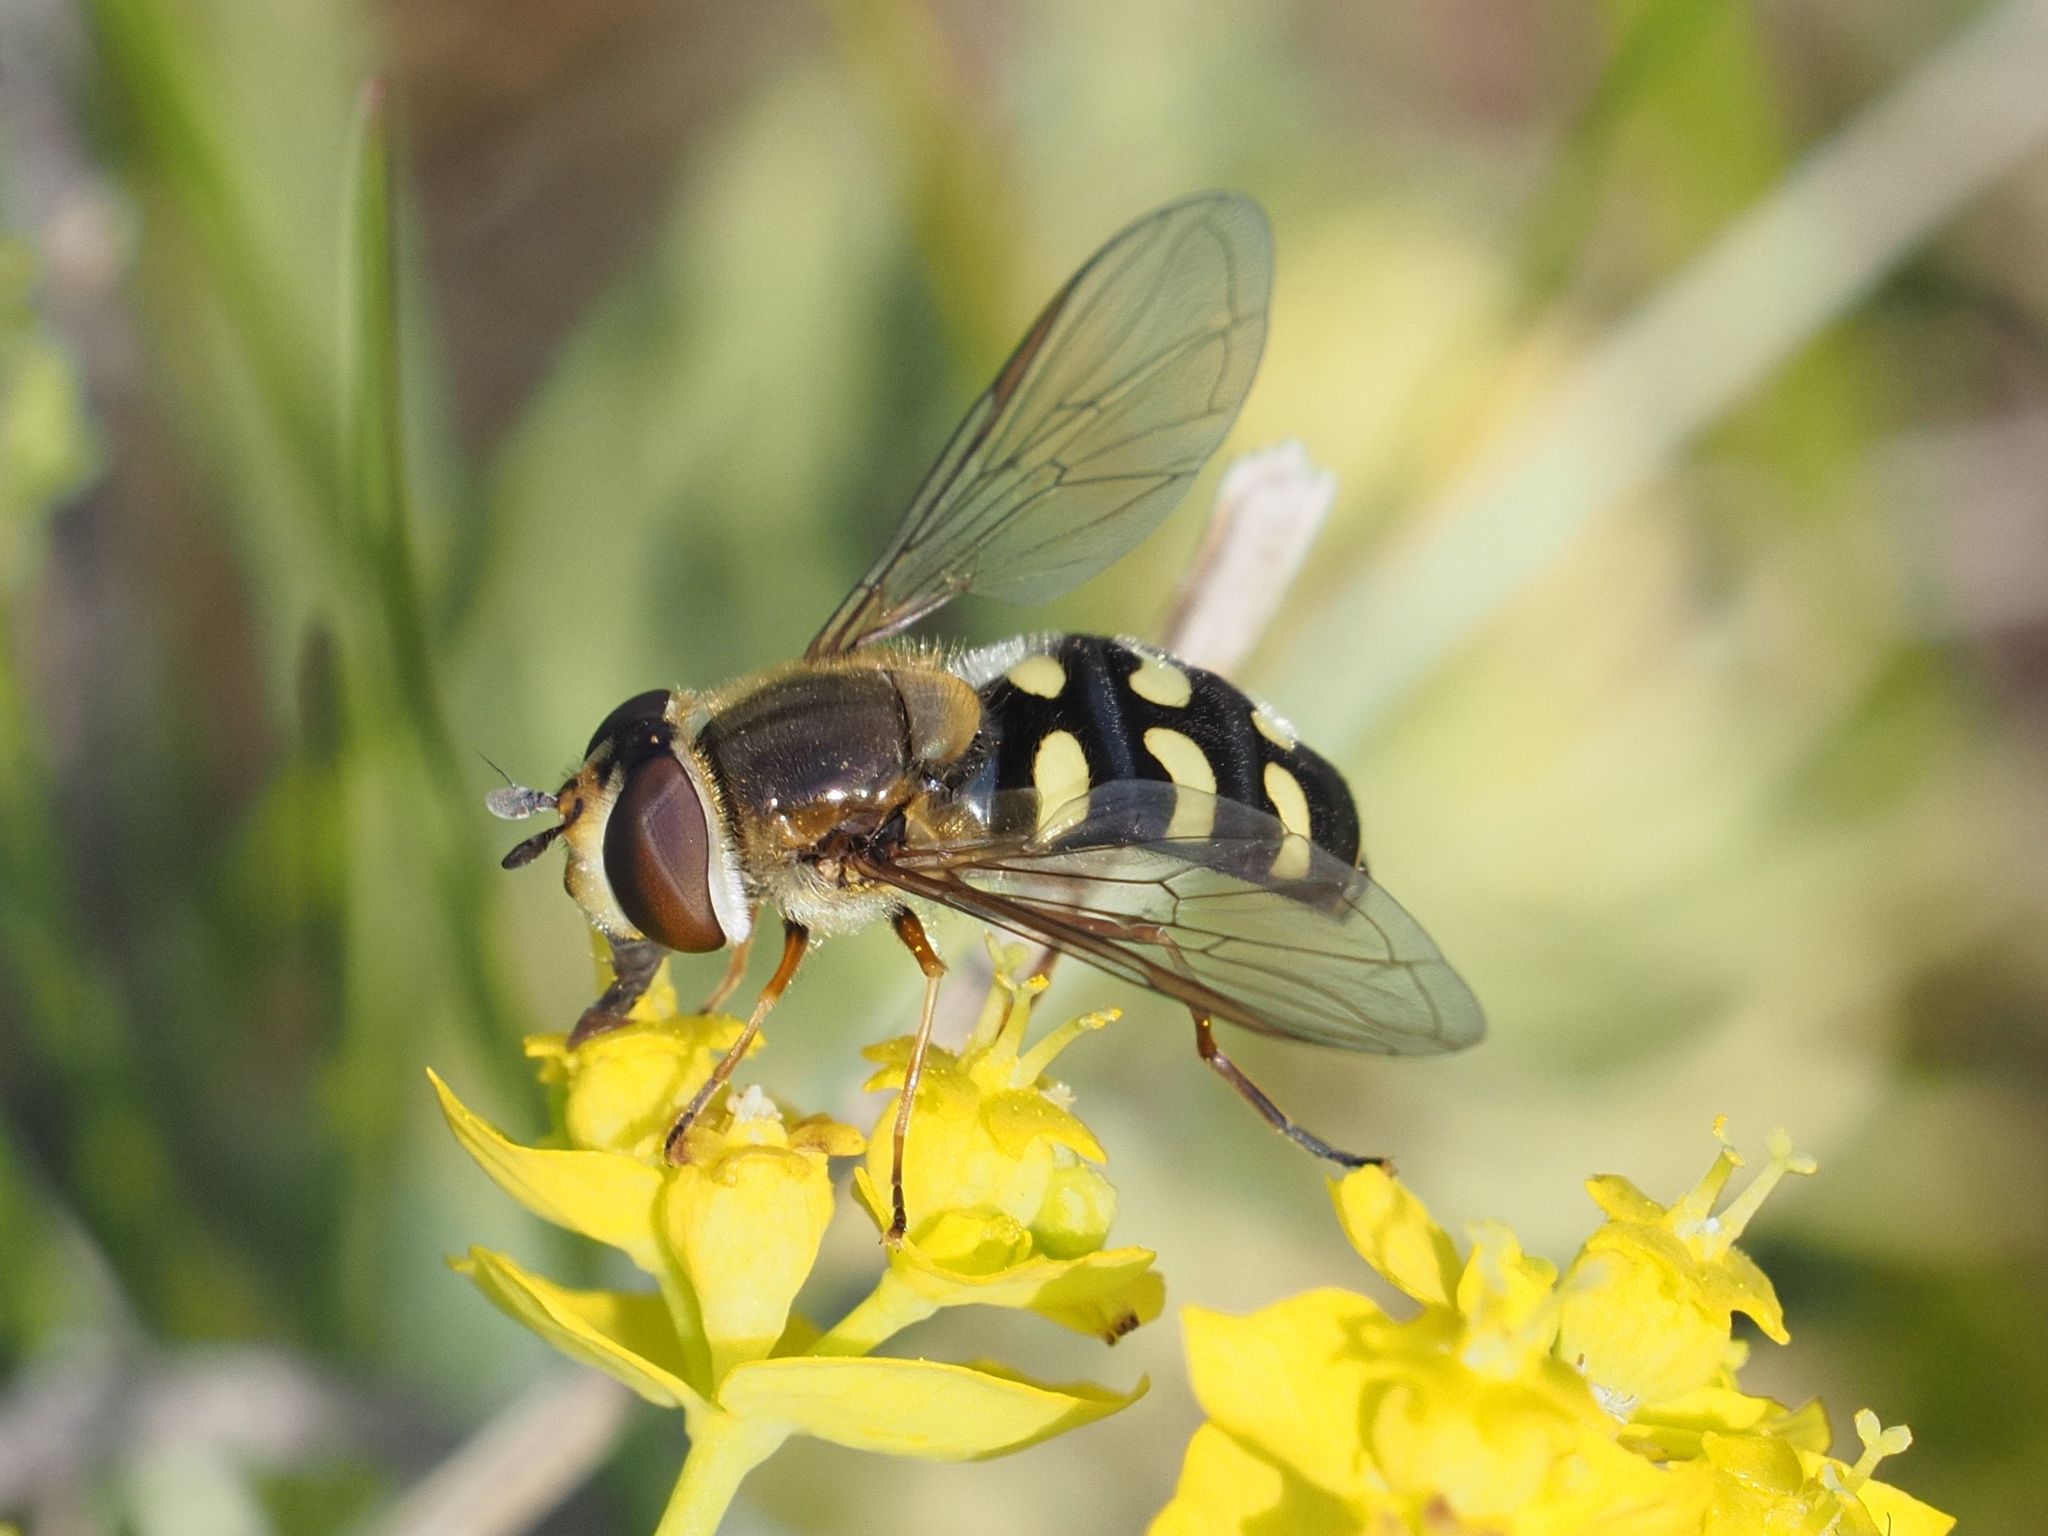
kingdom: Animalia
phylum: Arthropoda
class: Insecta
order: Diptera
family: Syrphidae
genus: Eupeodes
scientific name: Eupeodes luniger
